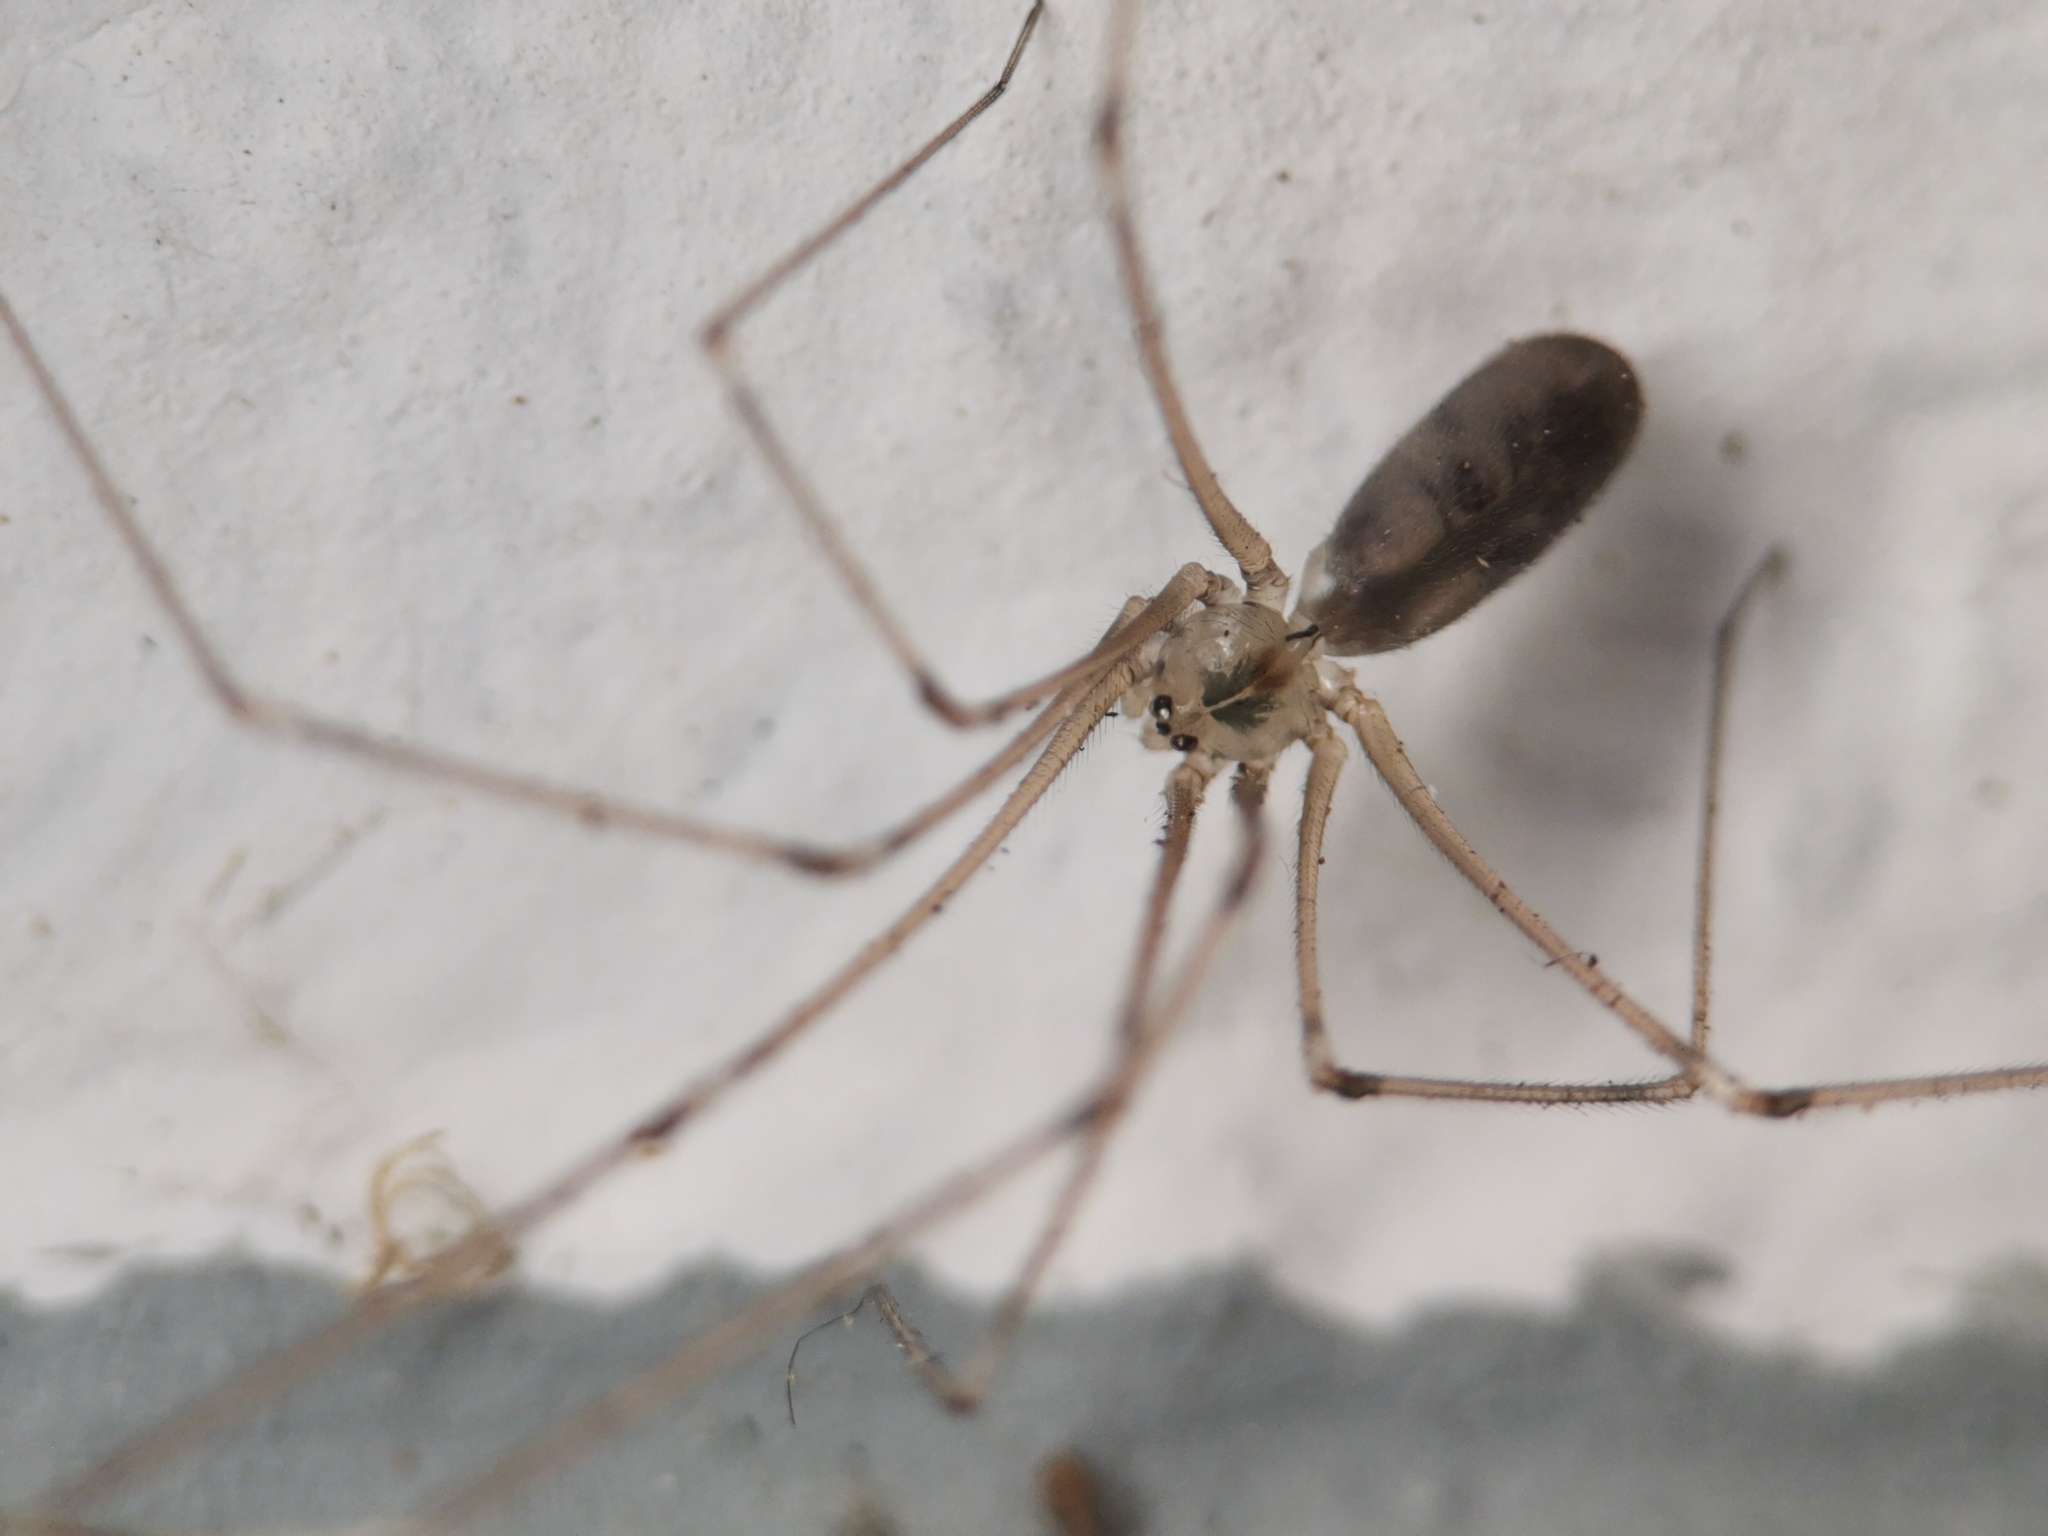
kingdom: Animalia
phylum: Arthropoda
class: Arachnida
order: Araneae
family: Pholcidae
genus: Pholcus
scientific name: Pholcus phalangioides
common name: Longbodied cellar spider
